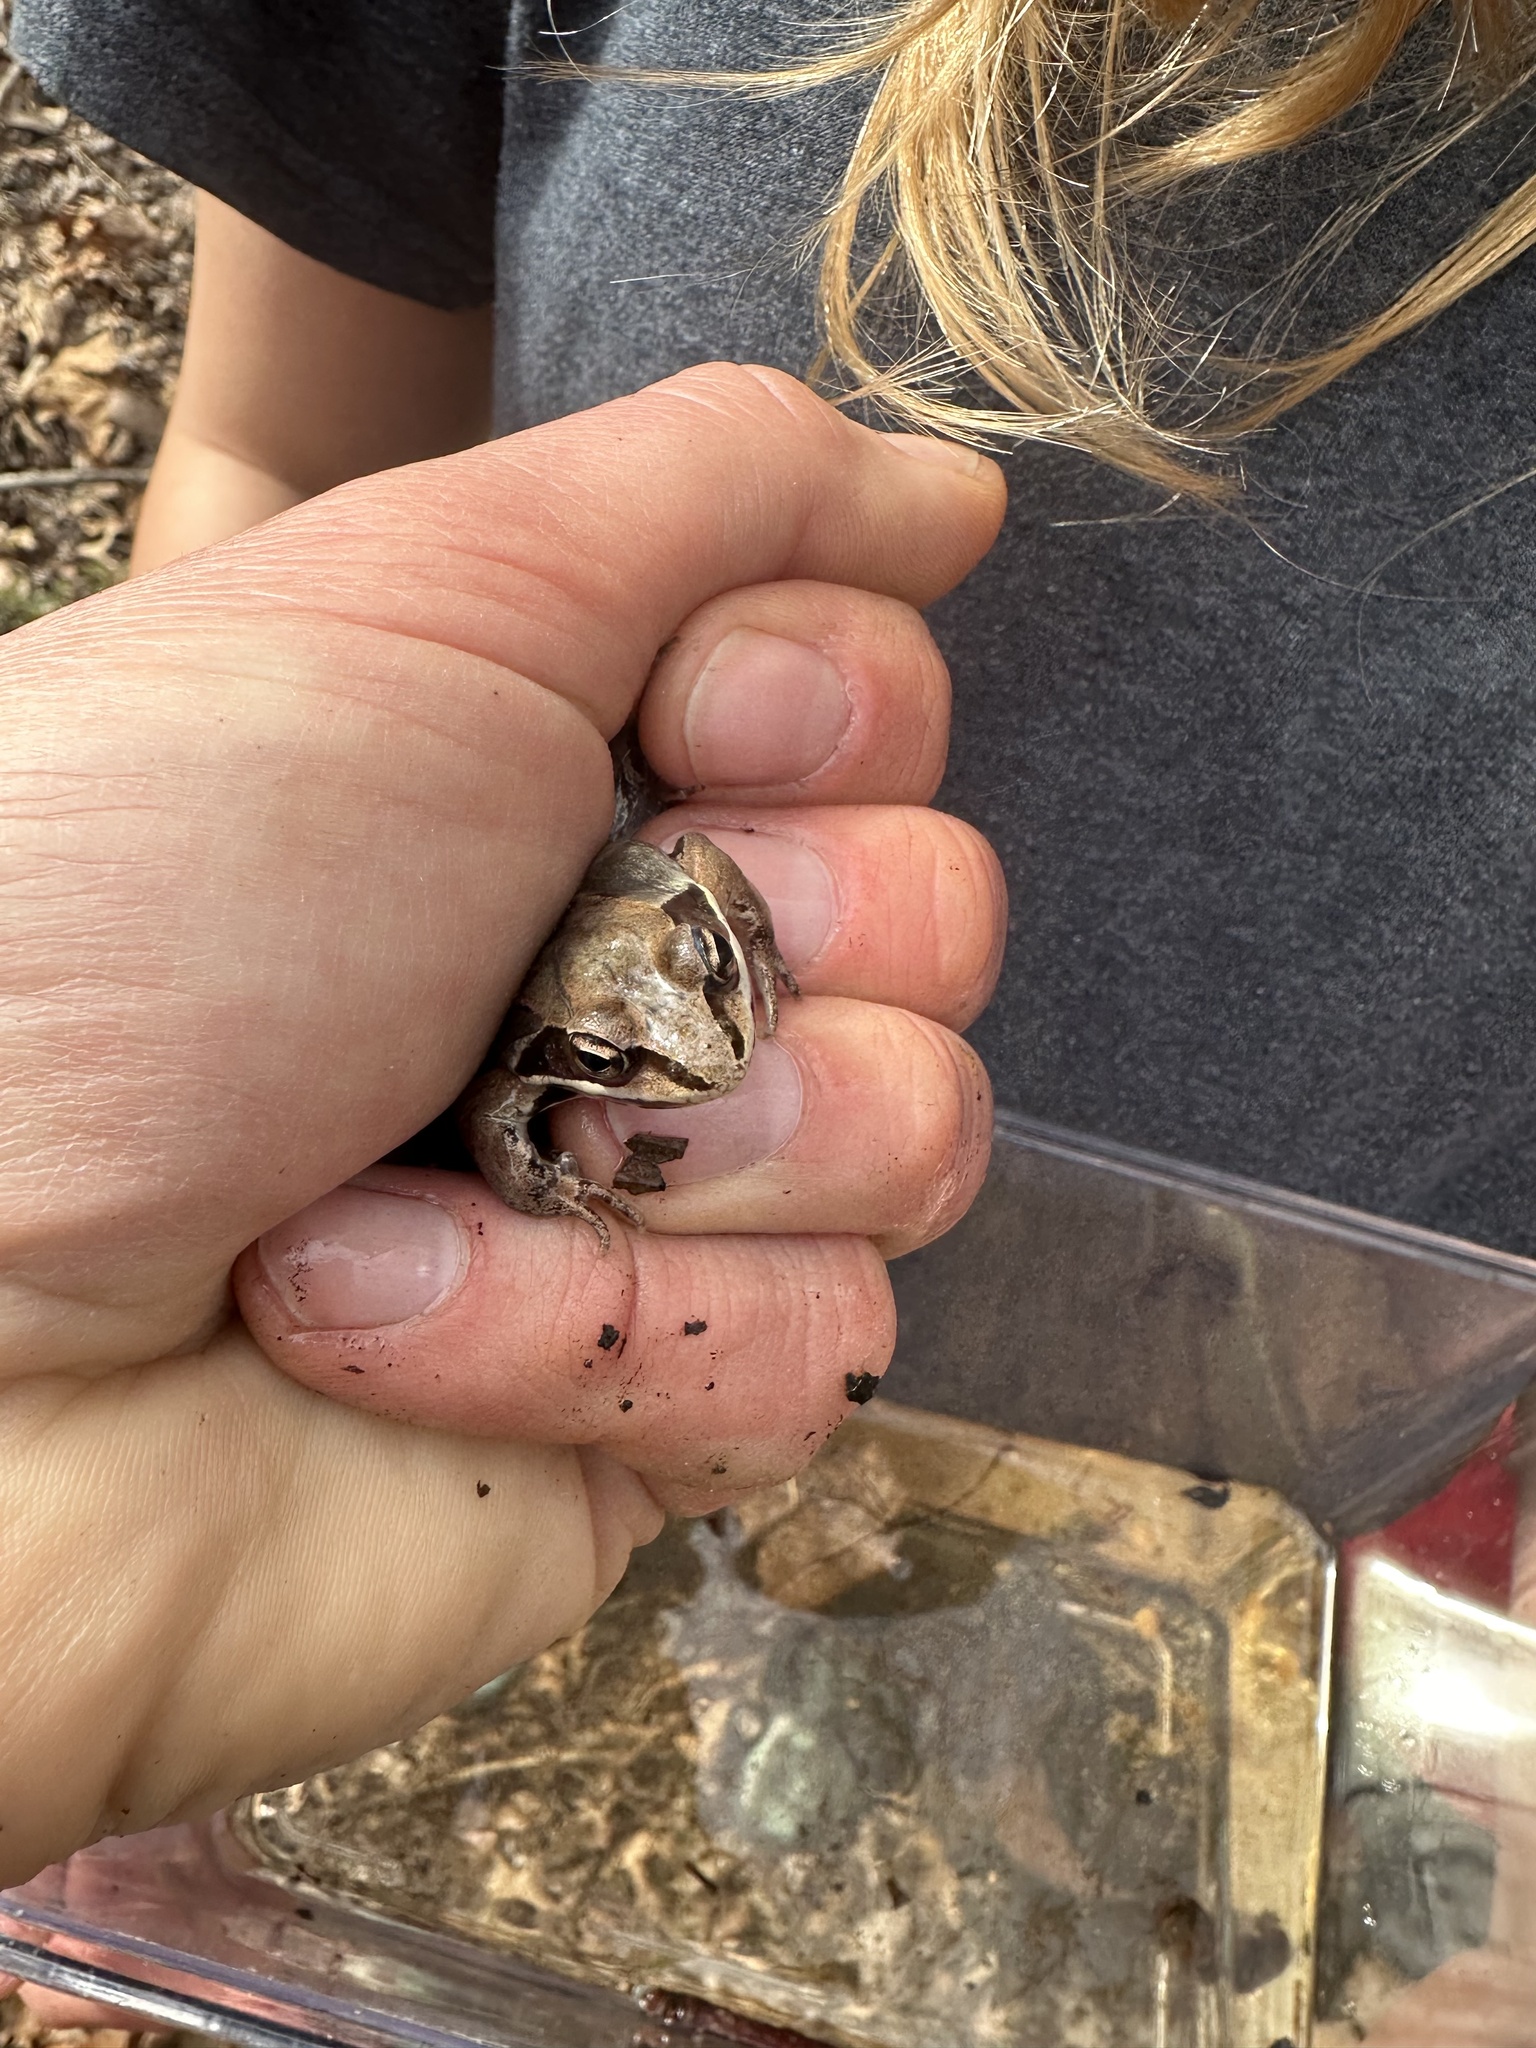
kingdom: Animalia
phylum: Chordata
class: Amphibia
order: Anura
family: Ranidae
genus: Lithobates
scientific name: Lithobates sylvaticus
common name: Wood frog
